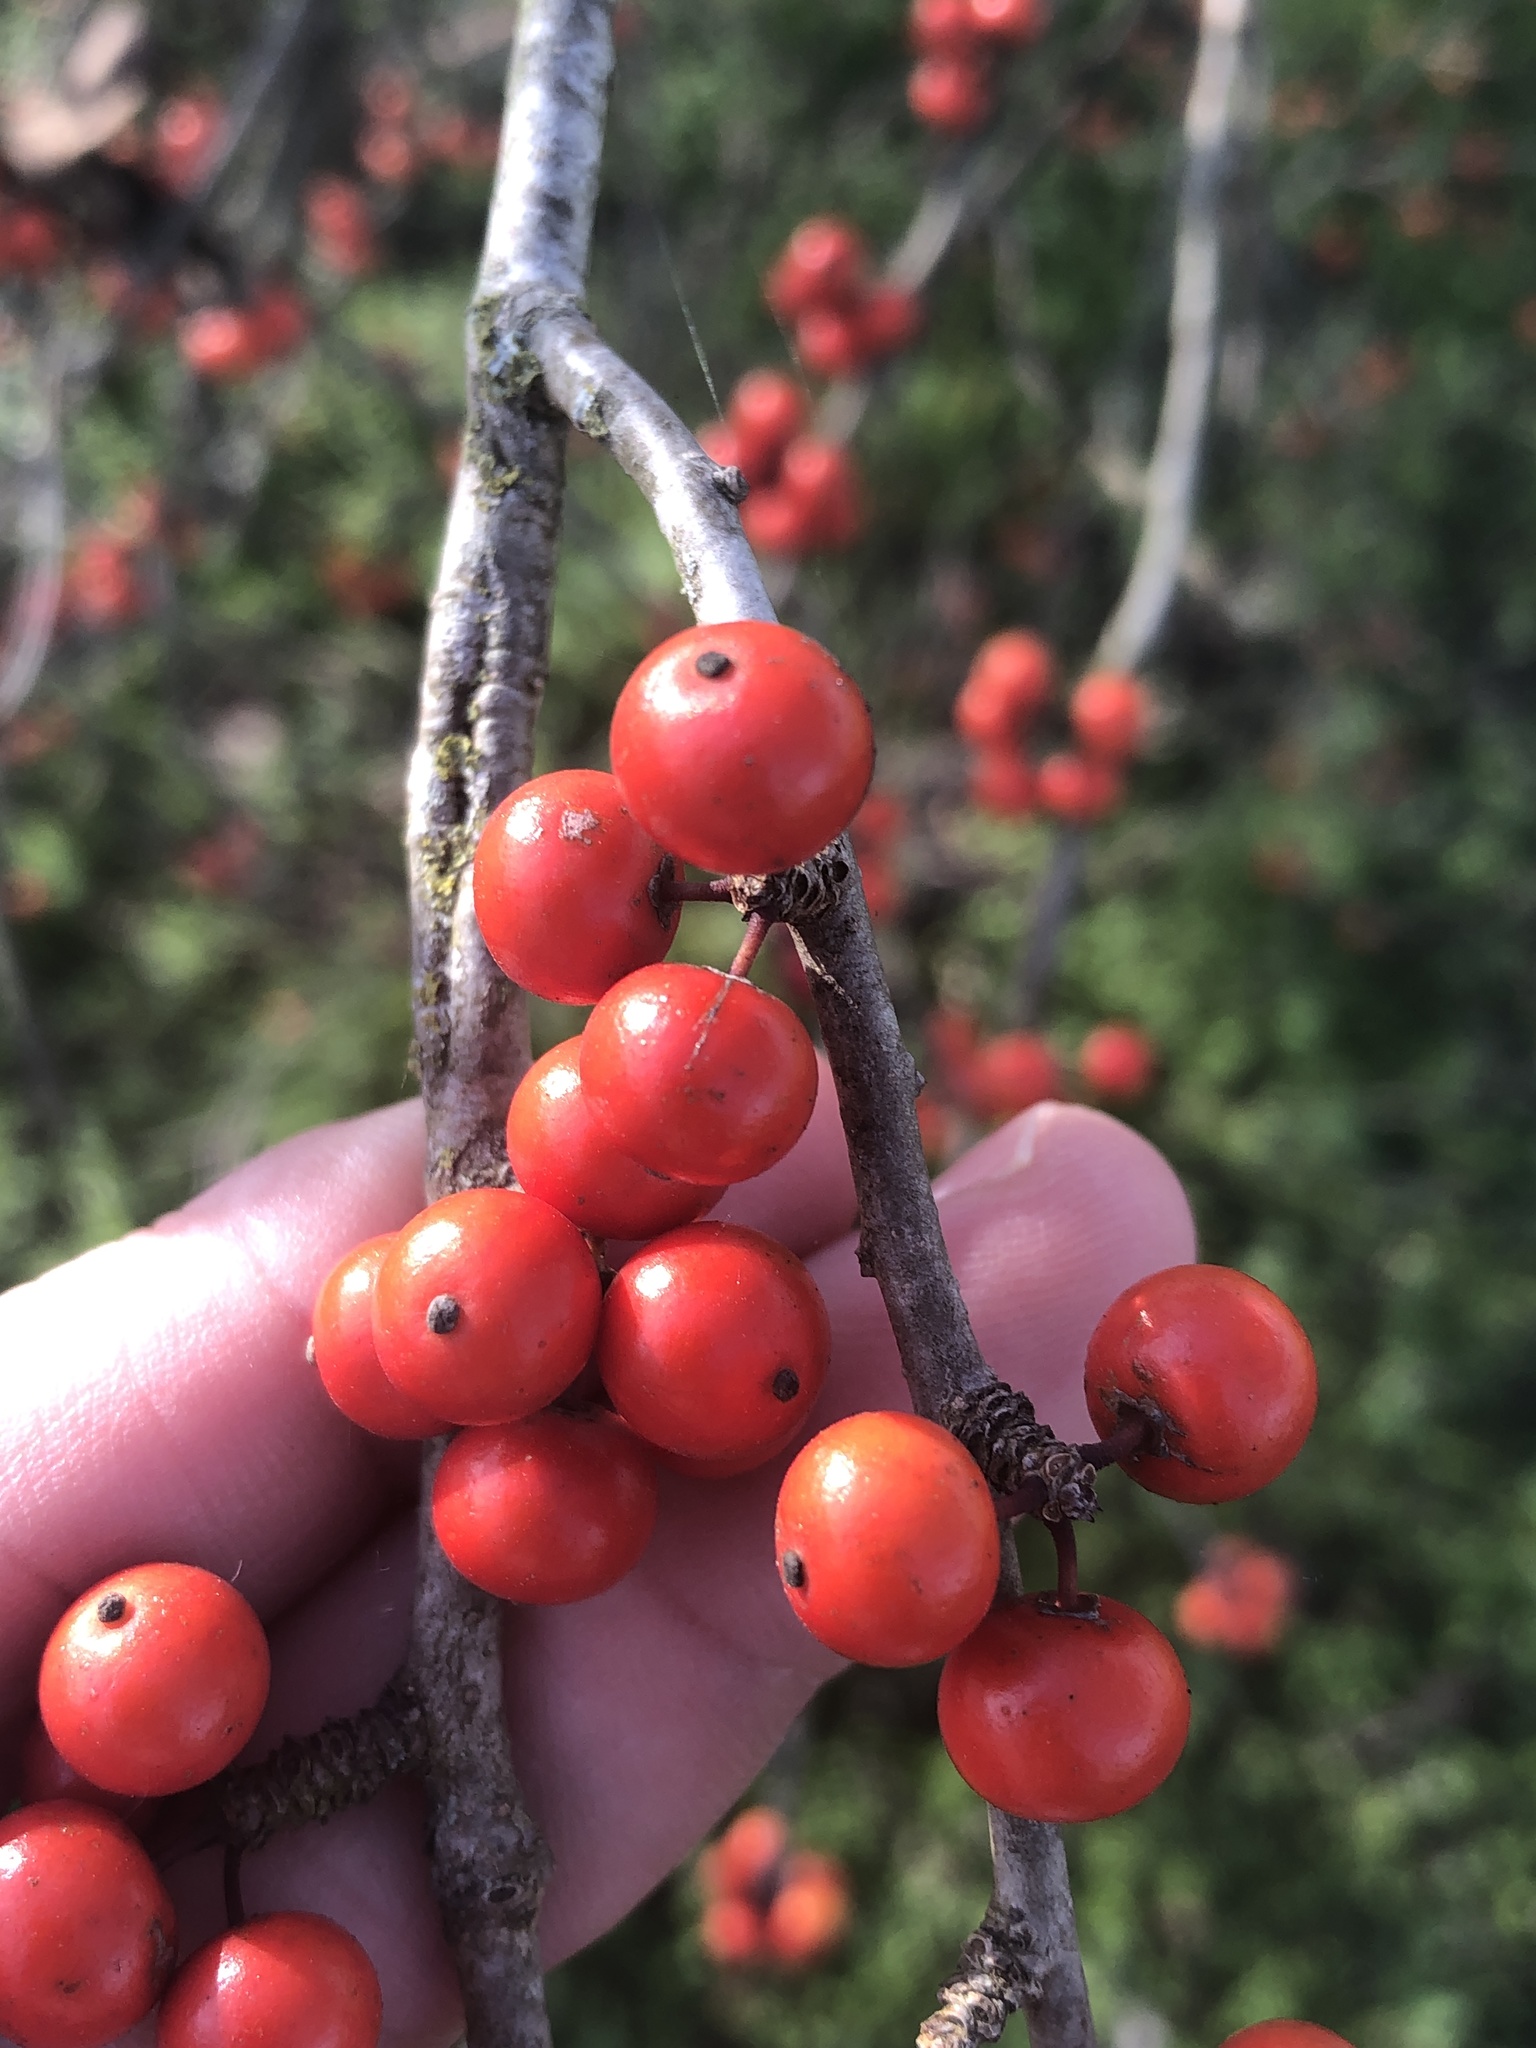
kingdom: Plantae
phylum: Tracheophyta
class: Magnoliopsida
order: Aquifoliales
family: Aquifoliaceae
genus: Ilex
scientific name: Ilex decidua
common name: Possum-haw
